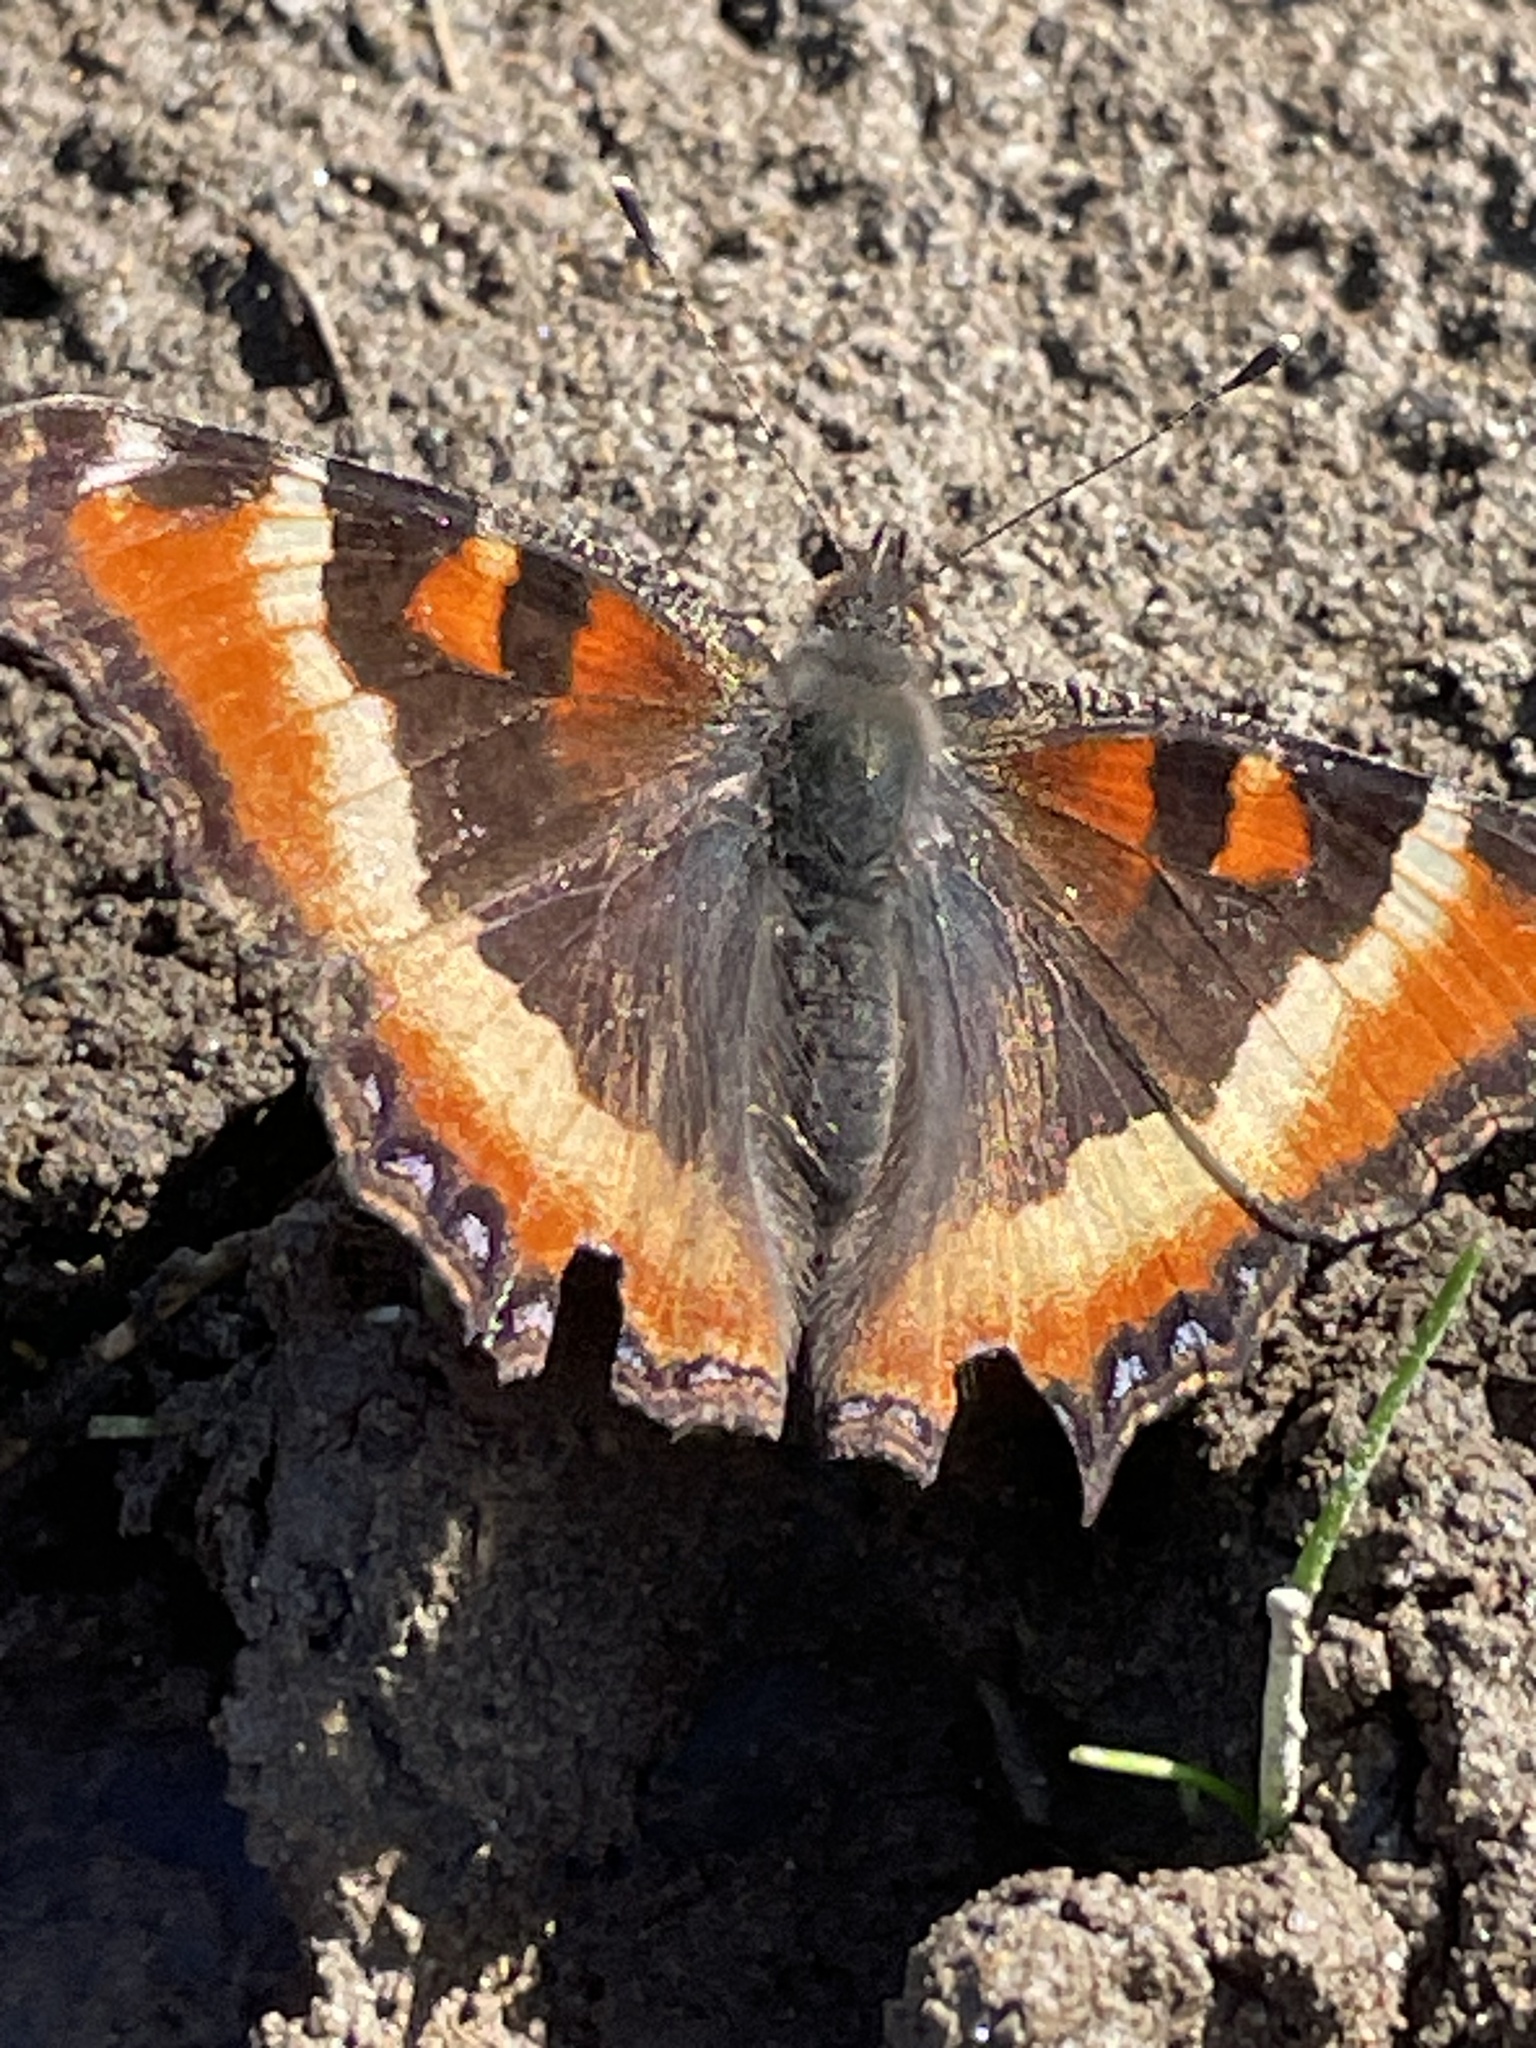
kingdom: Animalia
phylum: Arthropoda
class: Insecta
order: Lepidoptera
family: Nymphalidae
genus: Aglais
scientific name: Aglais milberti
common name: Milbert's tortoiseshell
